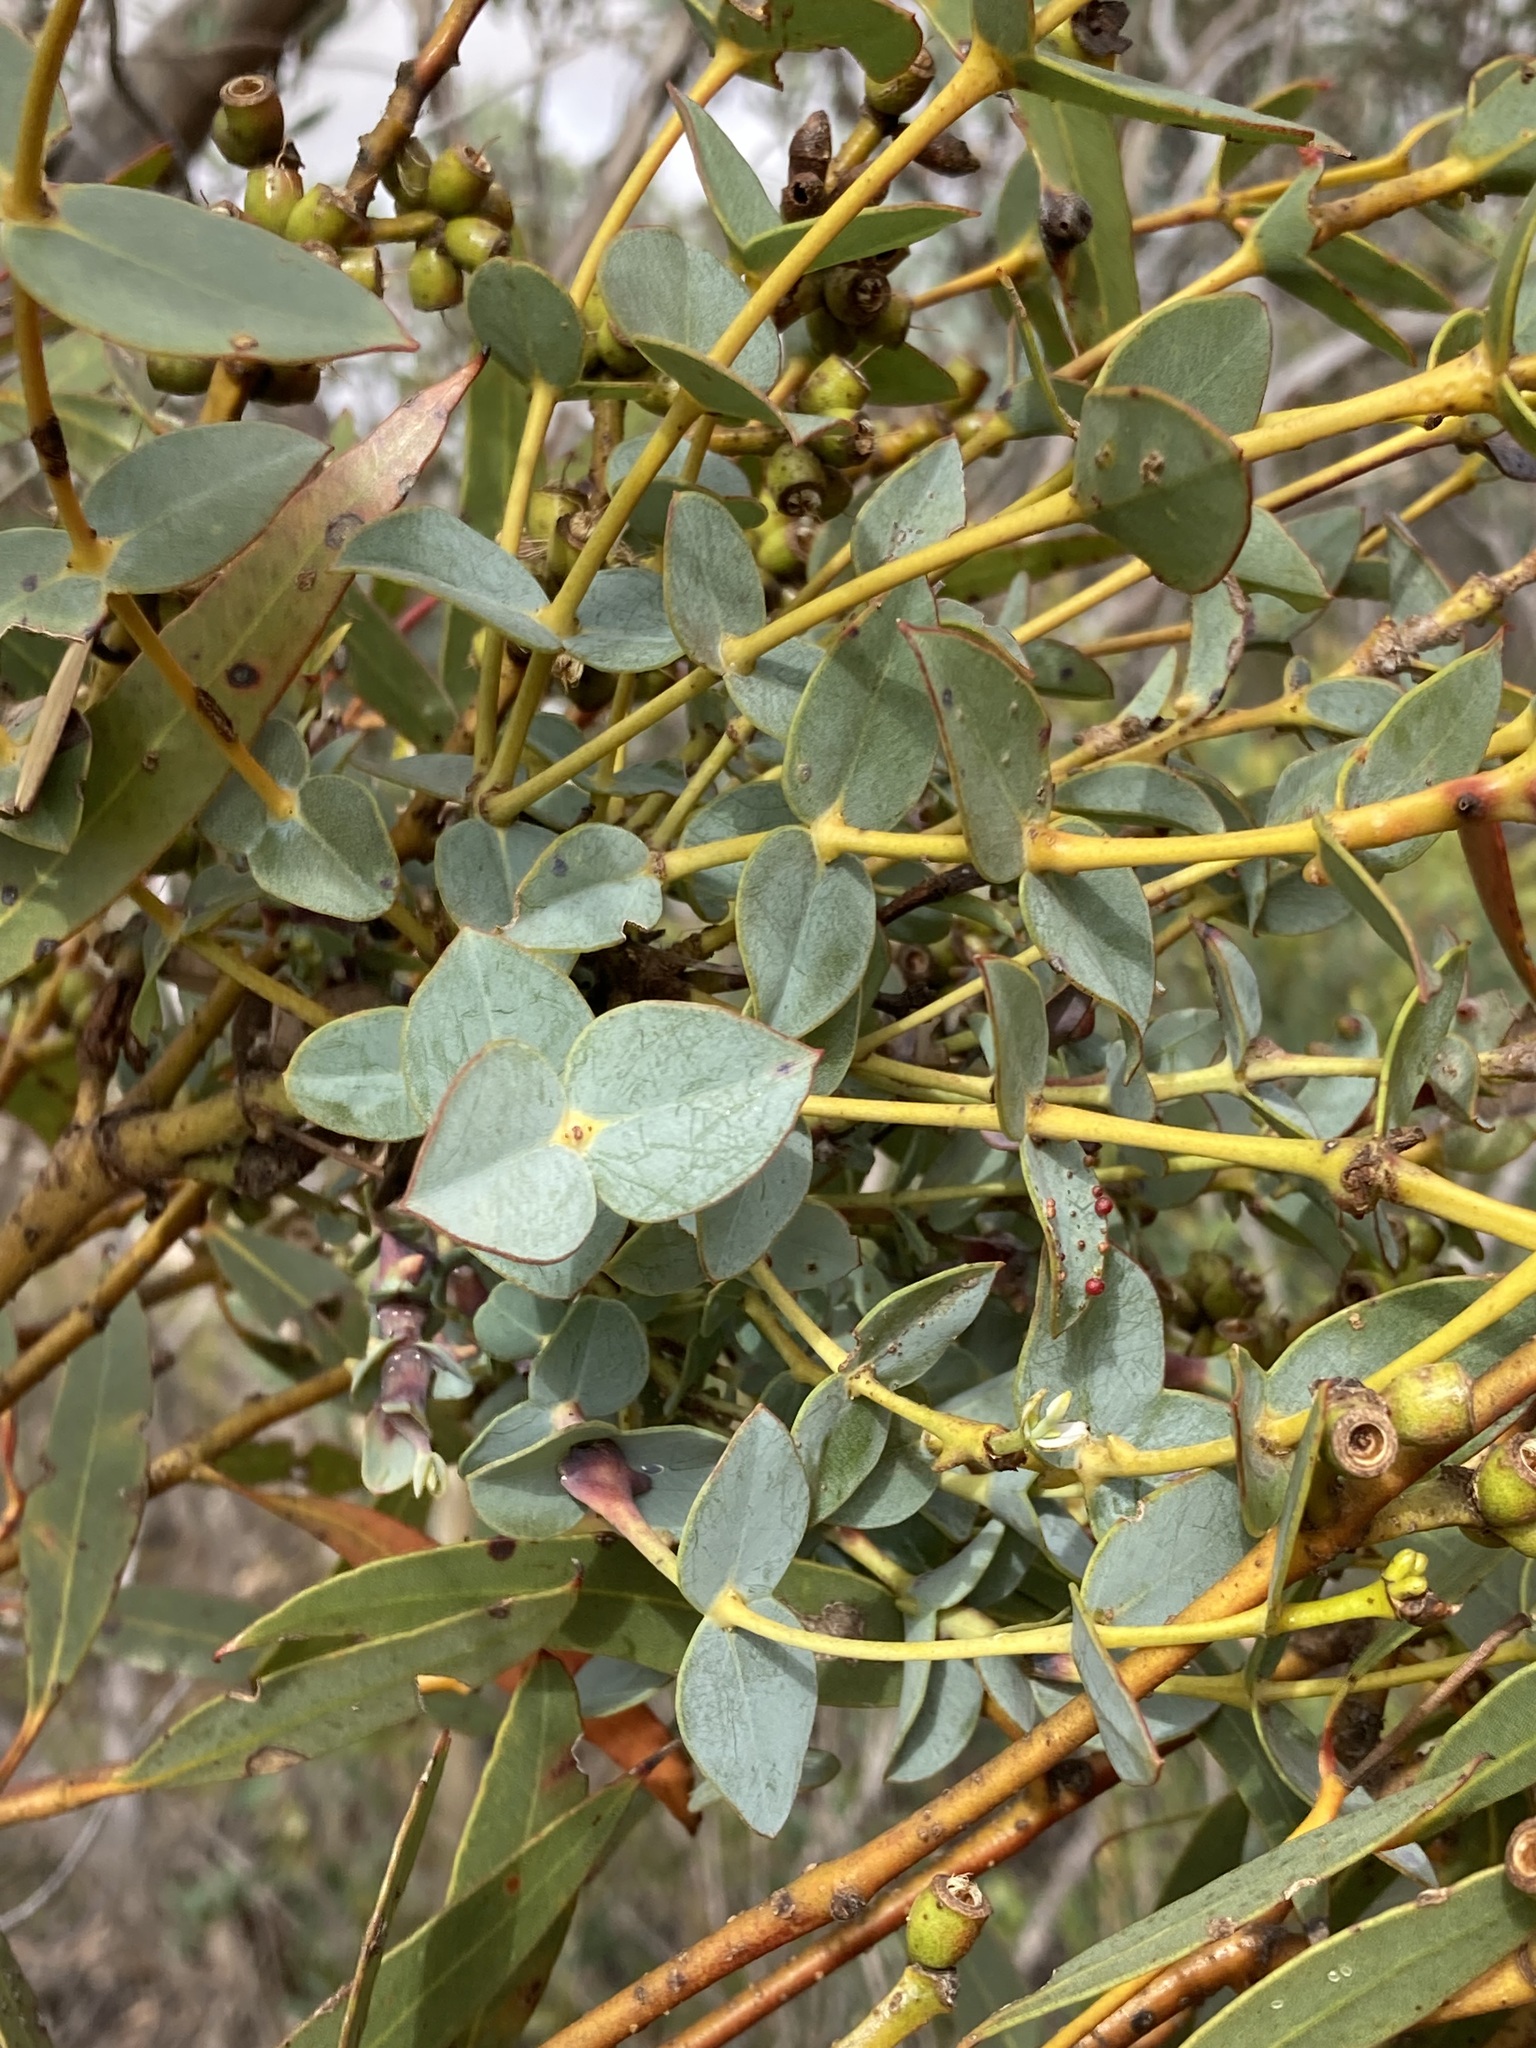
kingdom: Plantae
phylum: Tracheophyta
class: Magnoliopsida
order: Myrtales
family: Myrtaceae
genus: Eucalyptus
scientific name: Eucalyptus uncinata
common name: Hooked-leaved mallee
